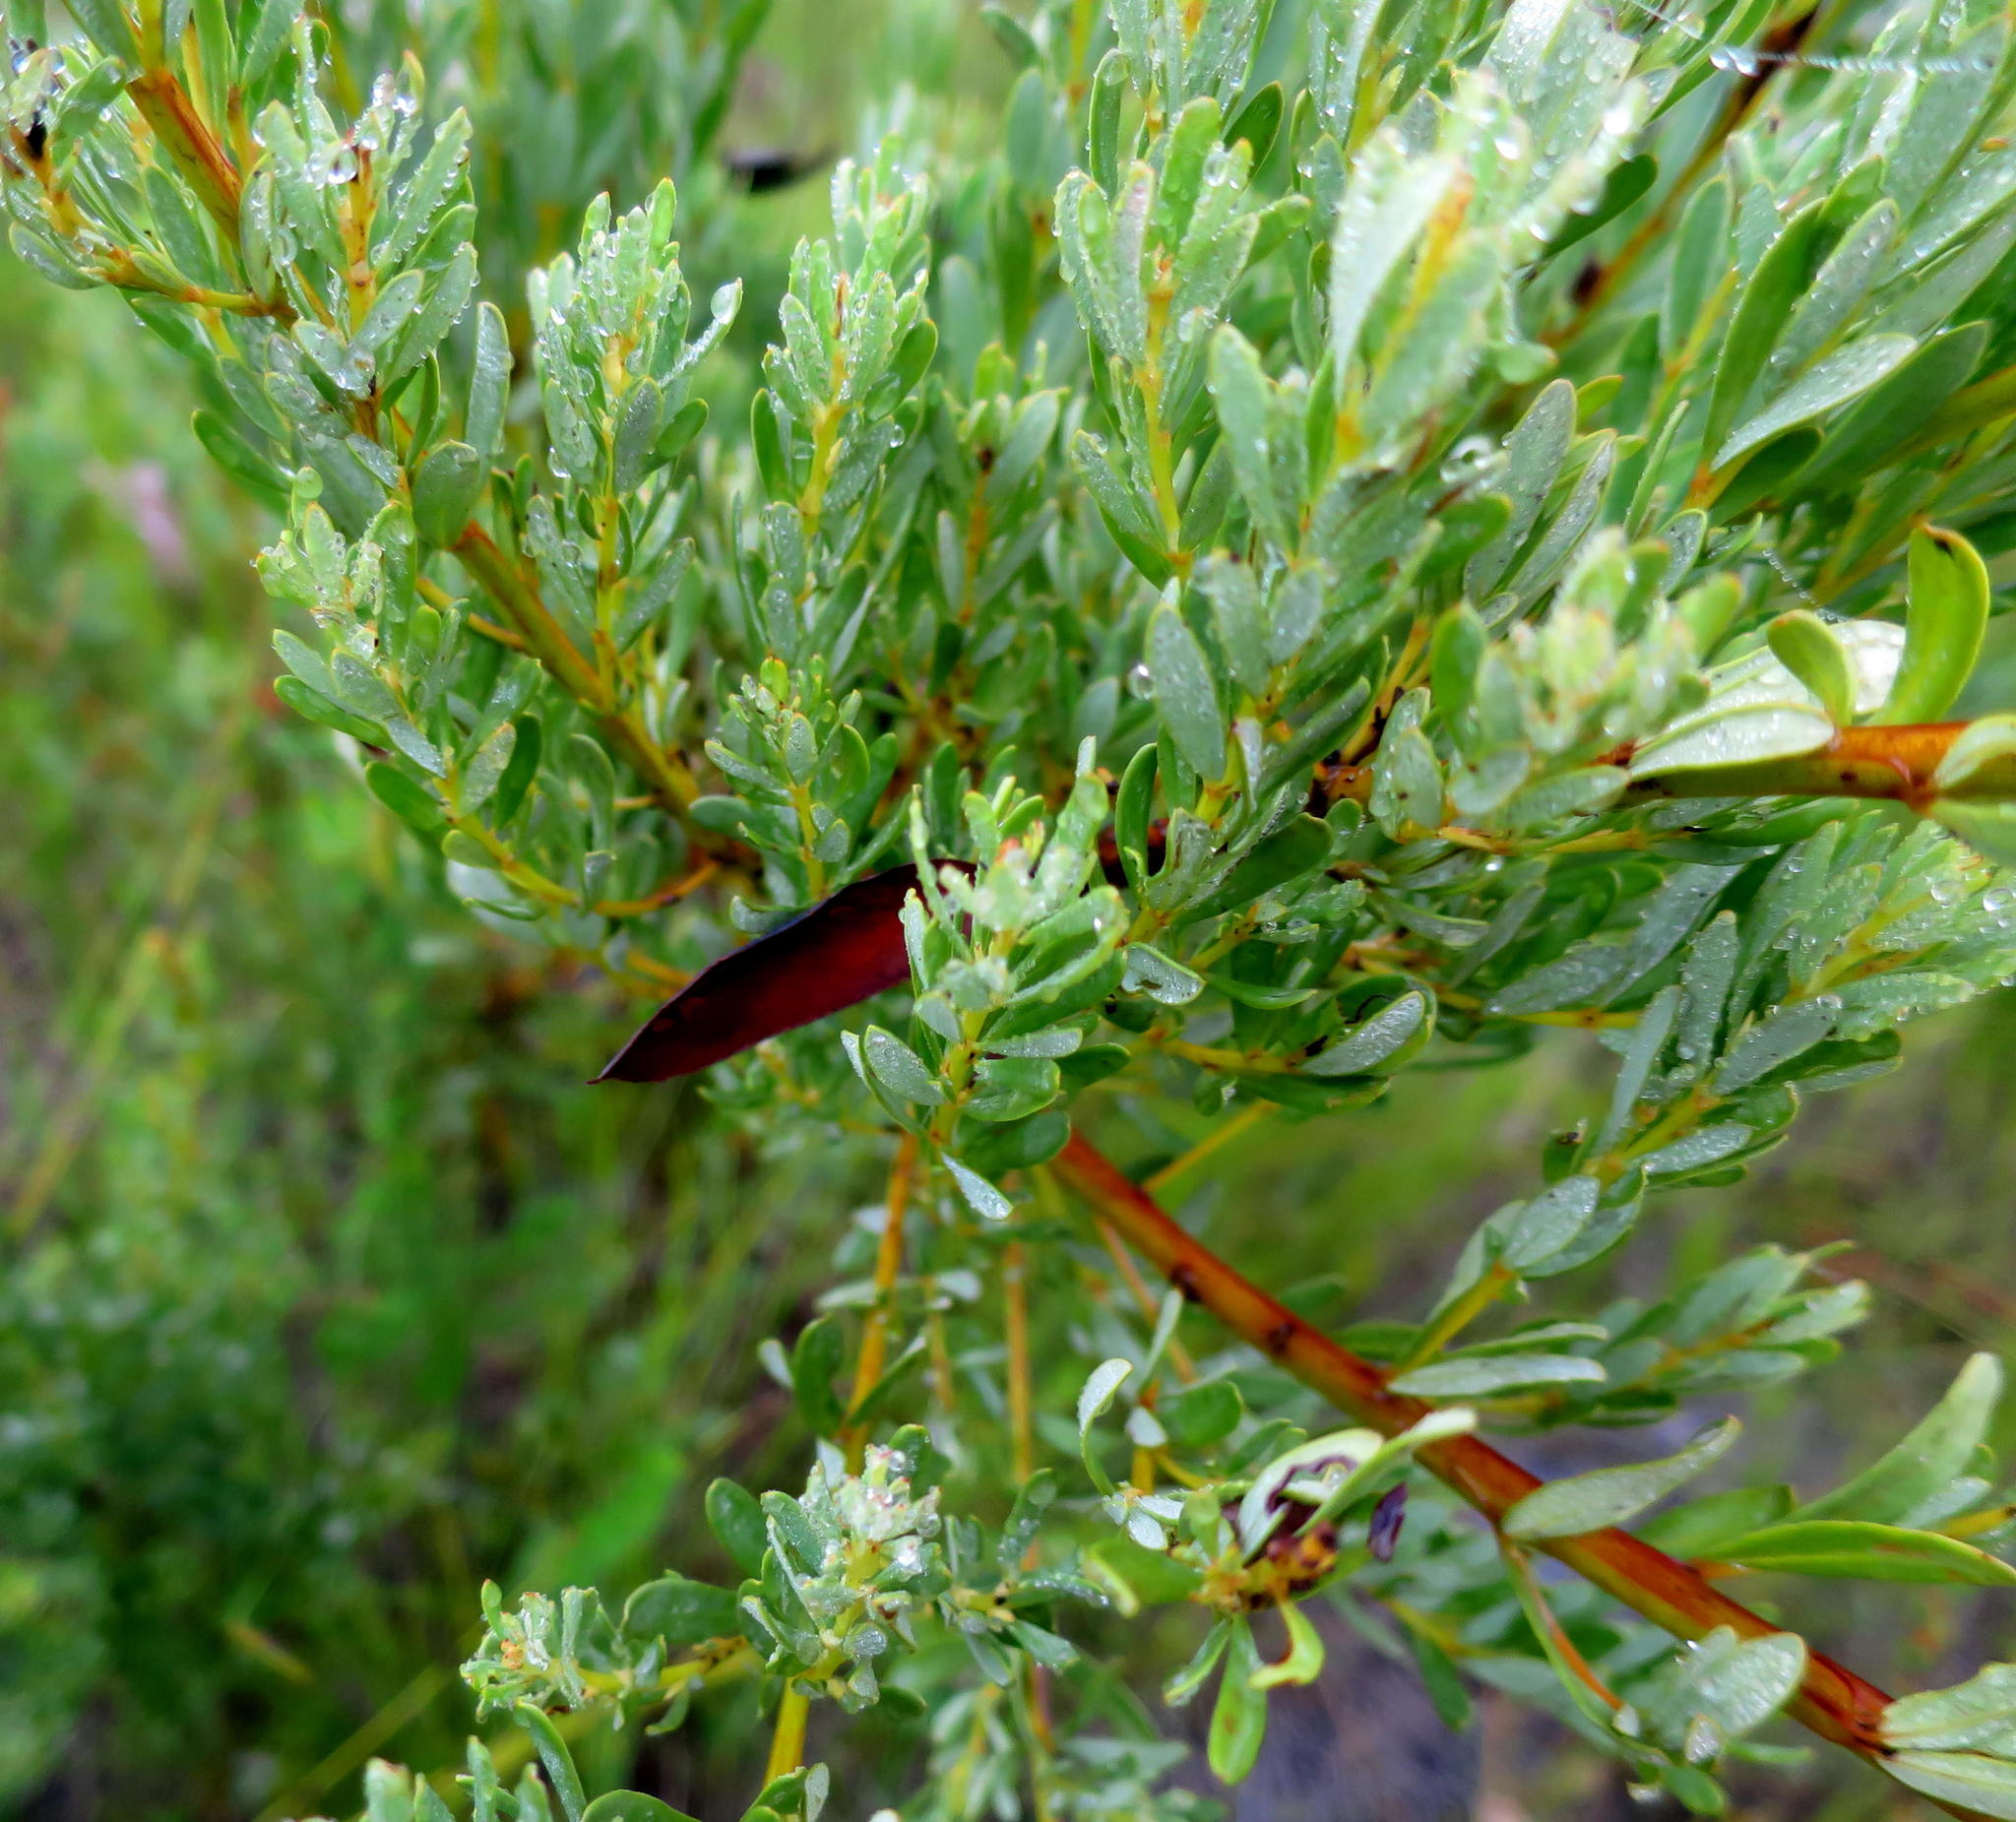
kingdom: Plantae
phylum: Tracheophyta
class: Magnoliopsida
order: Fabales
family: Fabaceae
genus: Cyclopia
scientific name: Cyclopia subternata
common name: Honeybush tea
